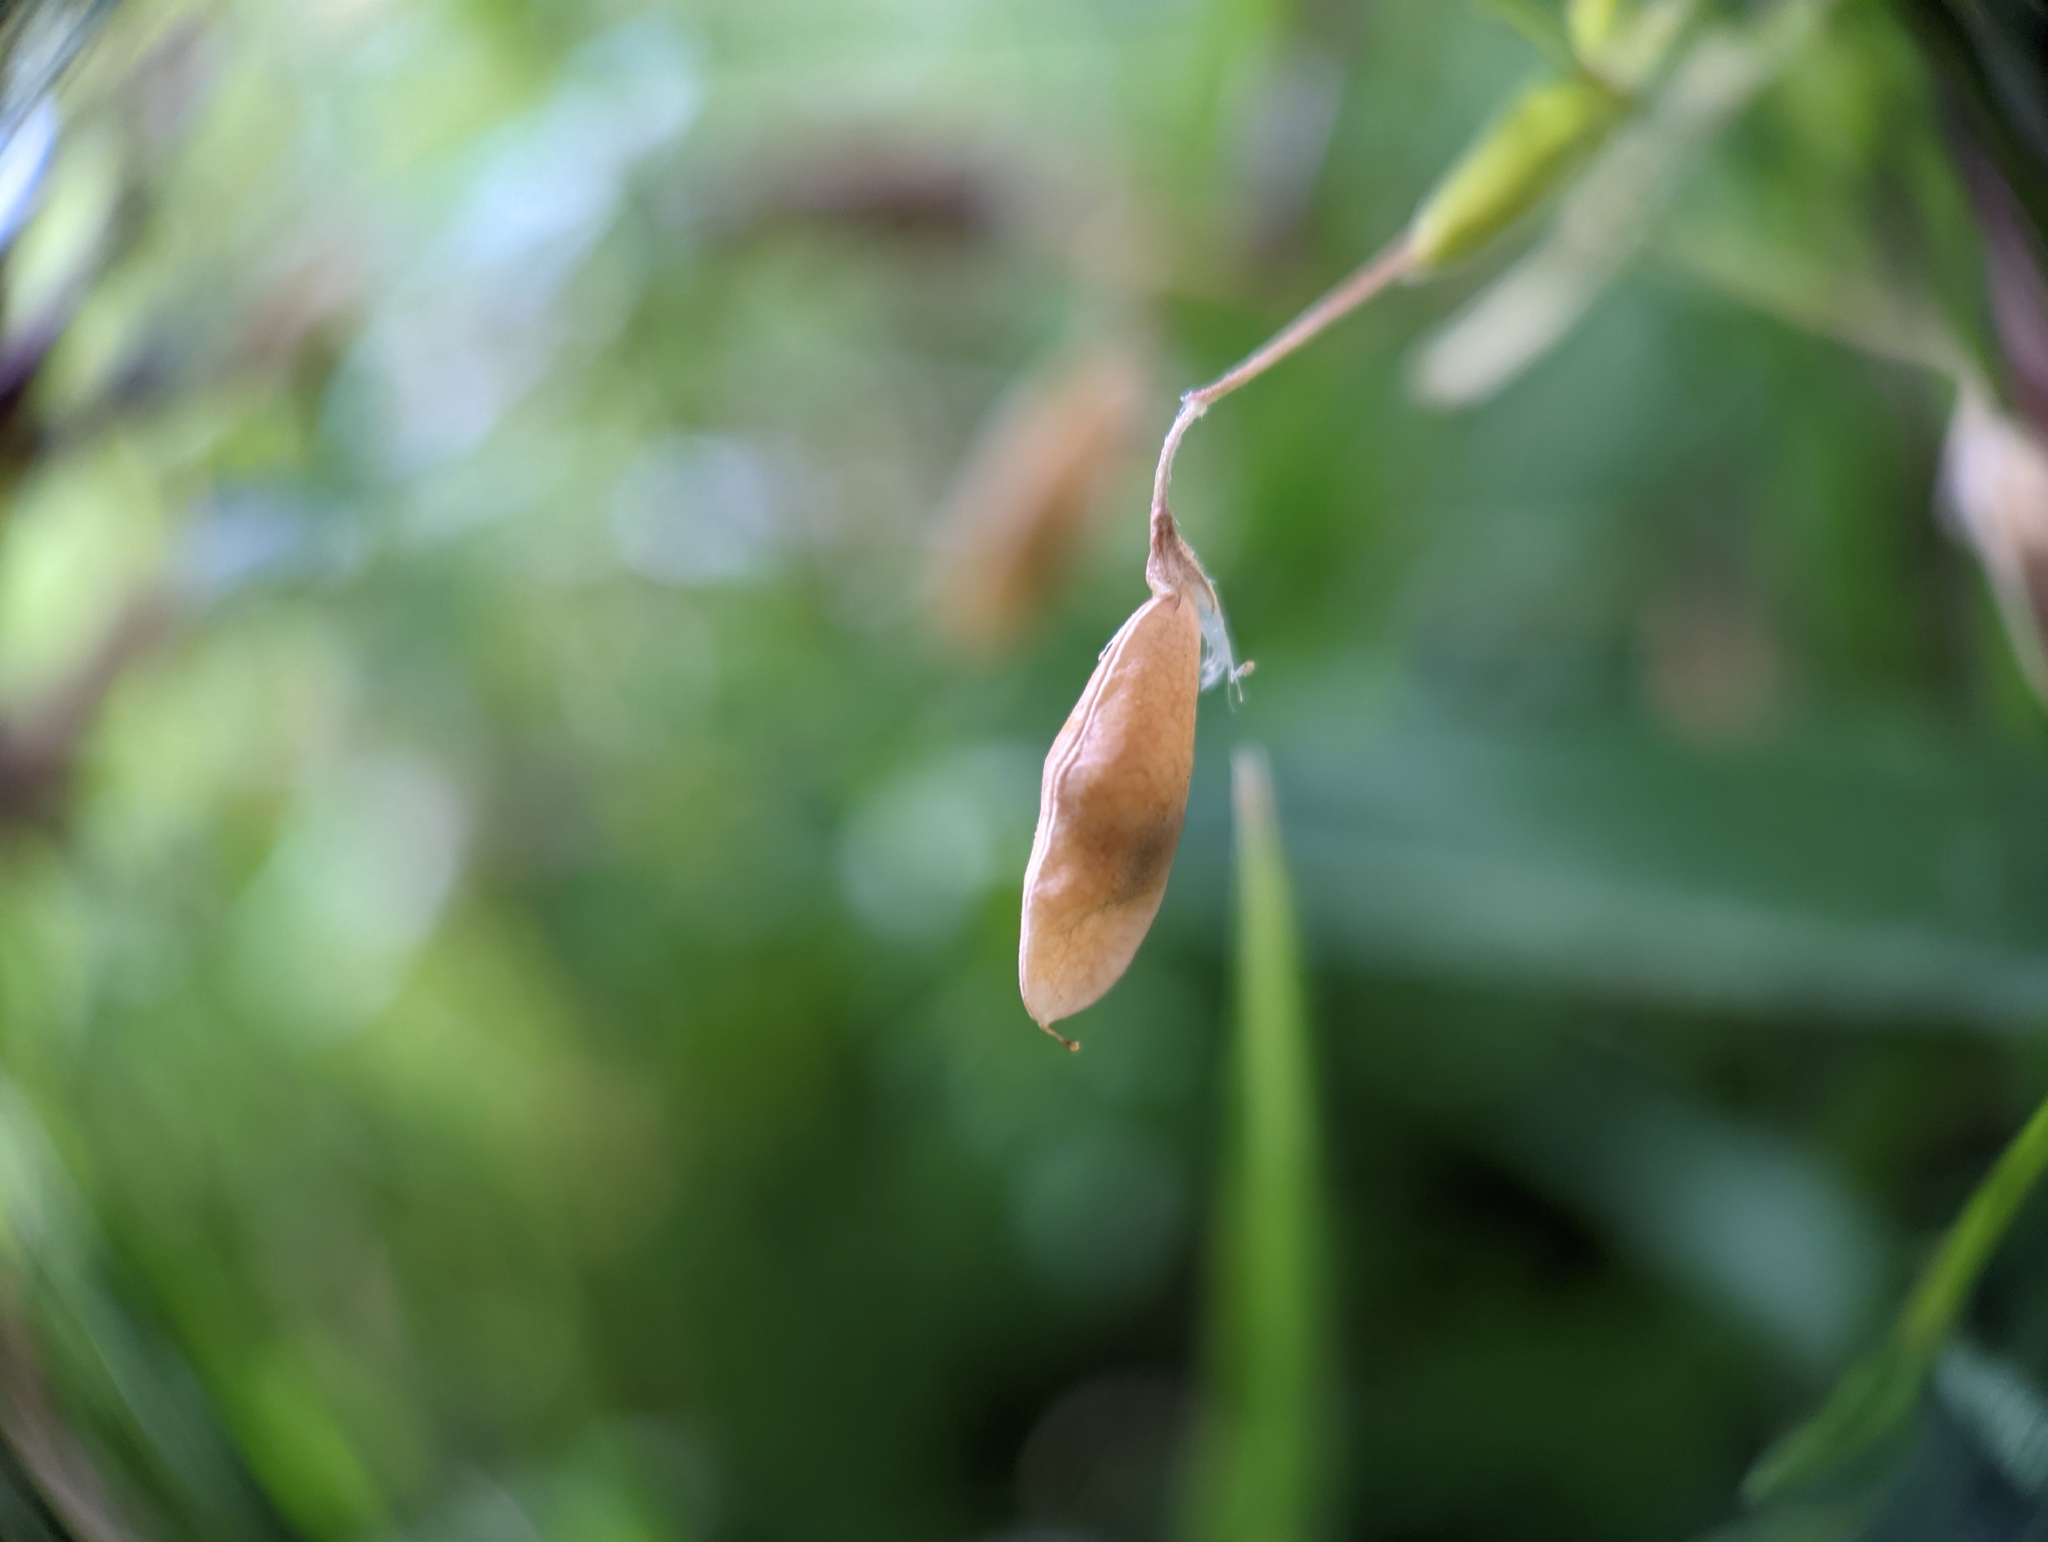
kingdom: Plantae
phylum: Tracheophyta
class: Magnoliopsida
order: Fabales
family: Fabaceae
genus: Vicia
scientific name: Vicia tetrasperma
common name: Smooth tare
